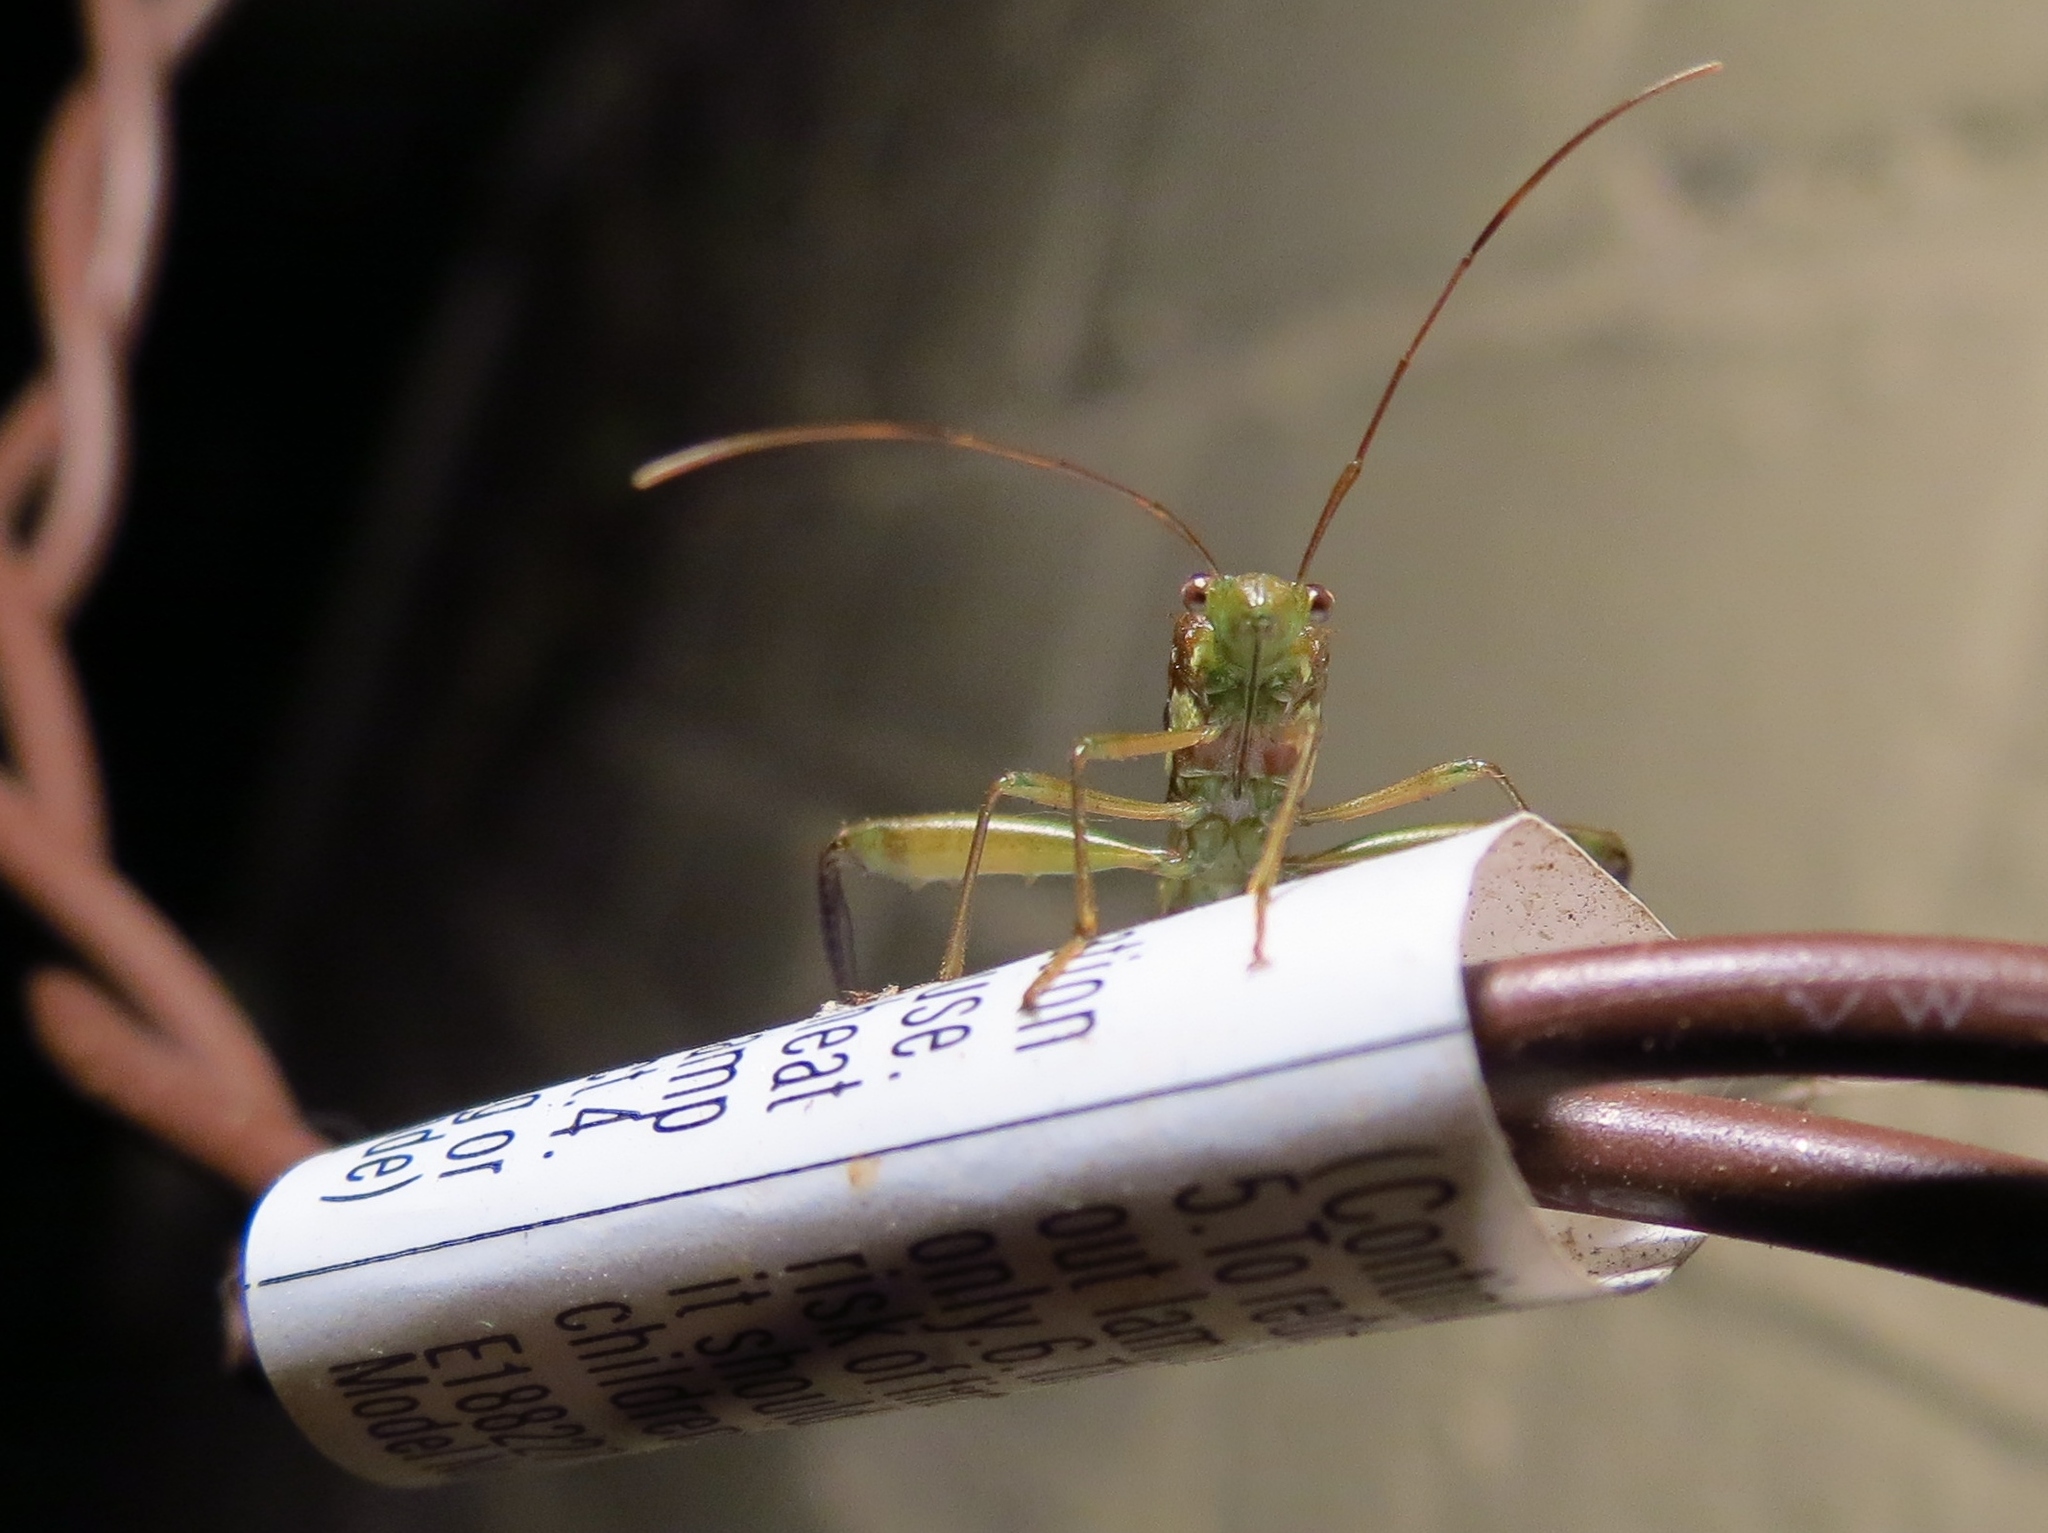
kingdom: Animalia
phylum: Arthropoda
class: Insecta
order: Hemiptera
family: Alydidae
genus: Hyalymenus
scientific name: Hyalymenus tarsatus
